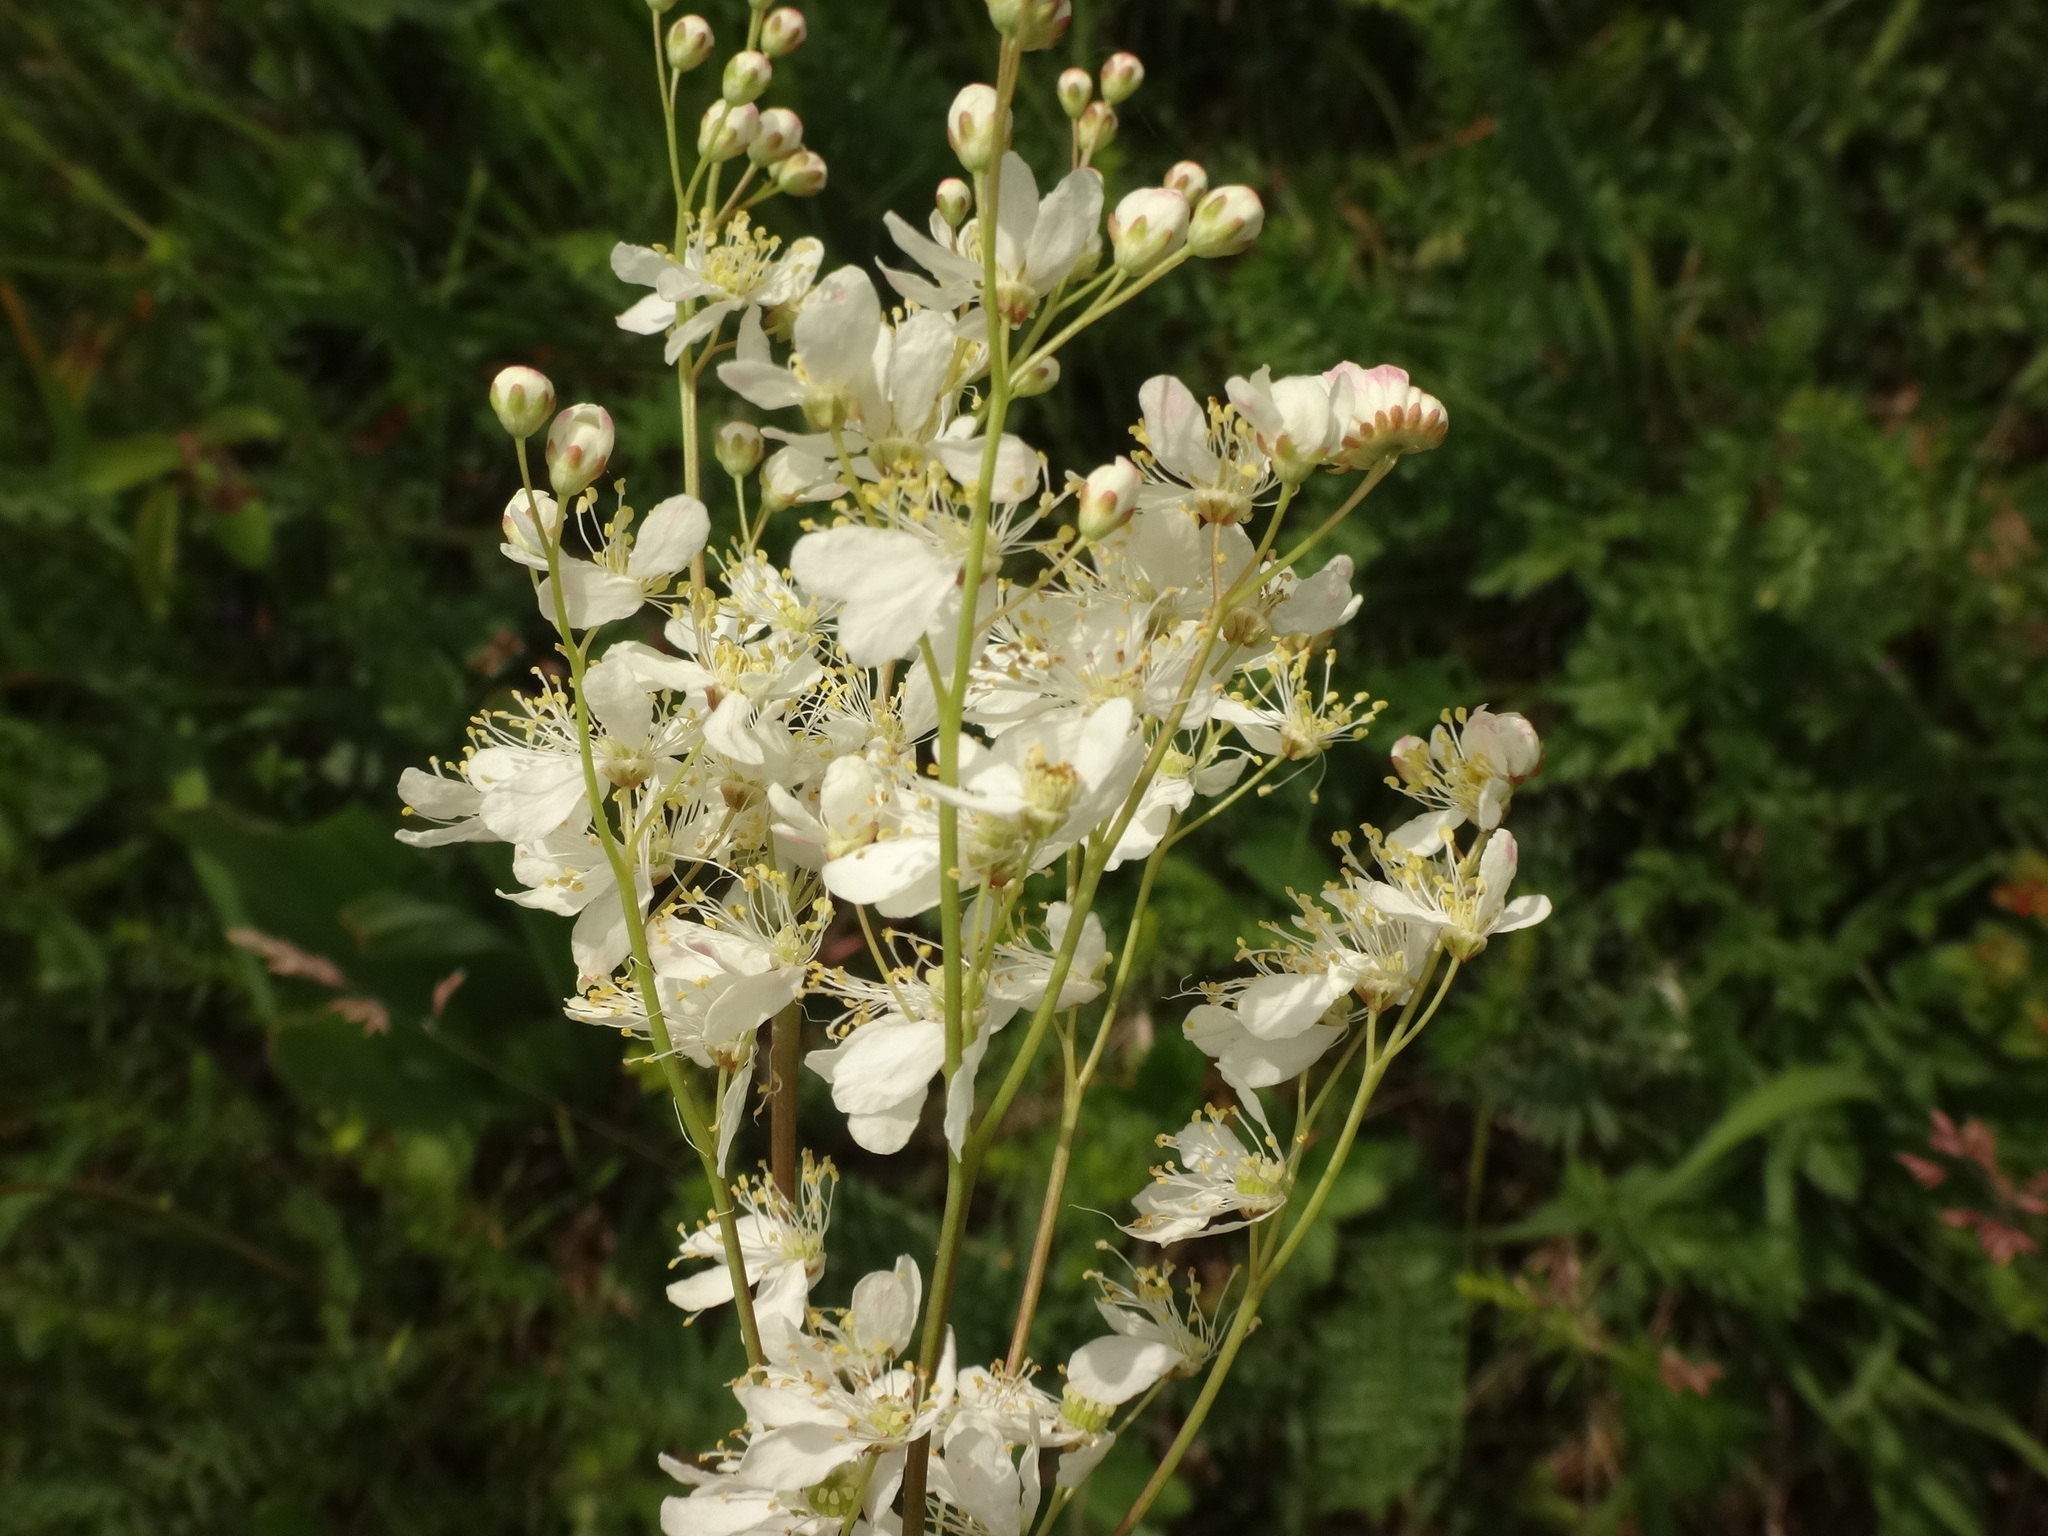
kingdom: Plantae
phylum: Tracheophyta
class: Magnoliopsida
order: Rosales
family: Rosaceae
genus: Filipendula
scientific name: Filipendula vulgaris
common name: Dropwort
